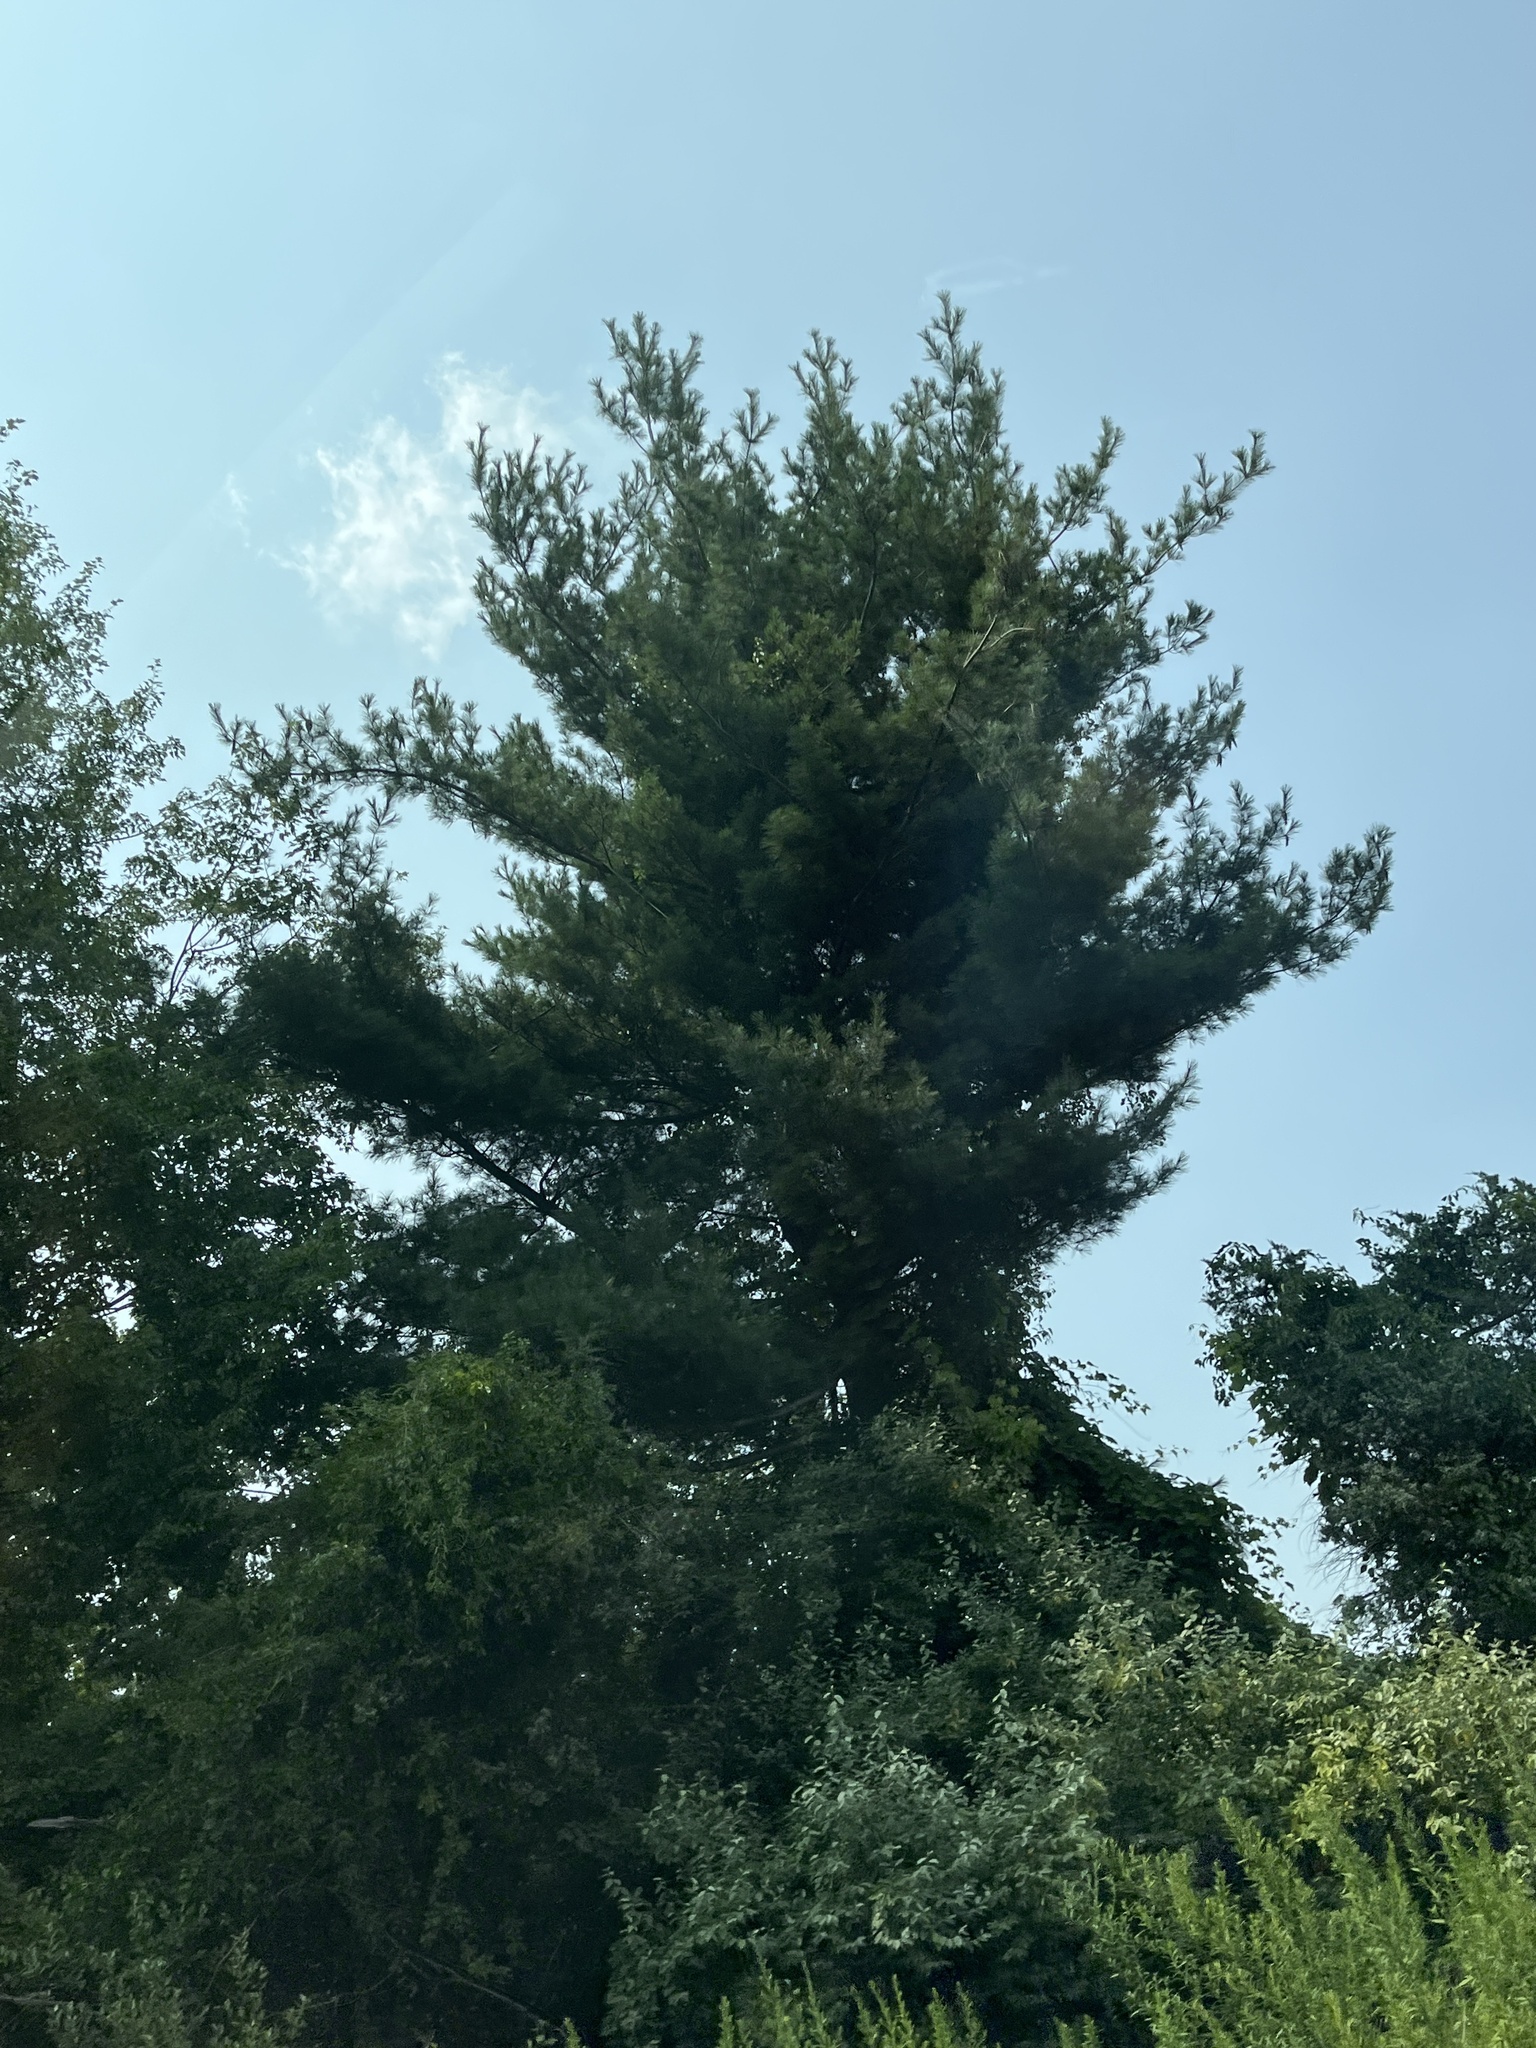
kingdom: Plantae
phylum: Tracheophyta
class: Pinopsida
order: Pinales
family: Pinaceae
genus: Pinus
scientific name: Pinus strobus
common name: Weymouth pine
